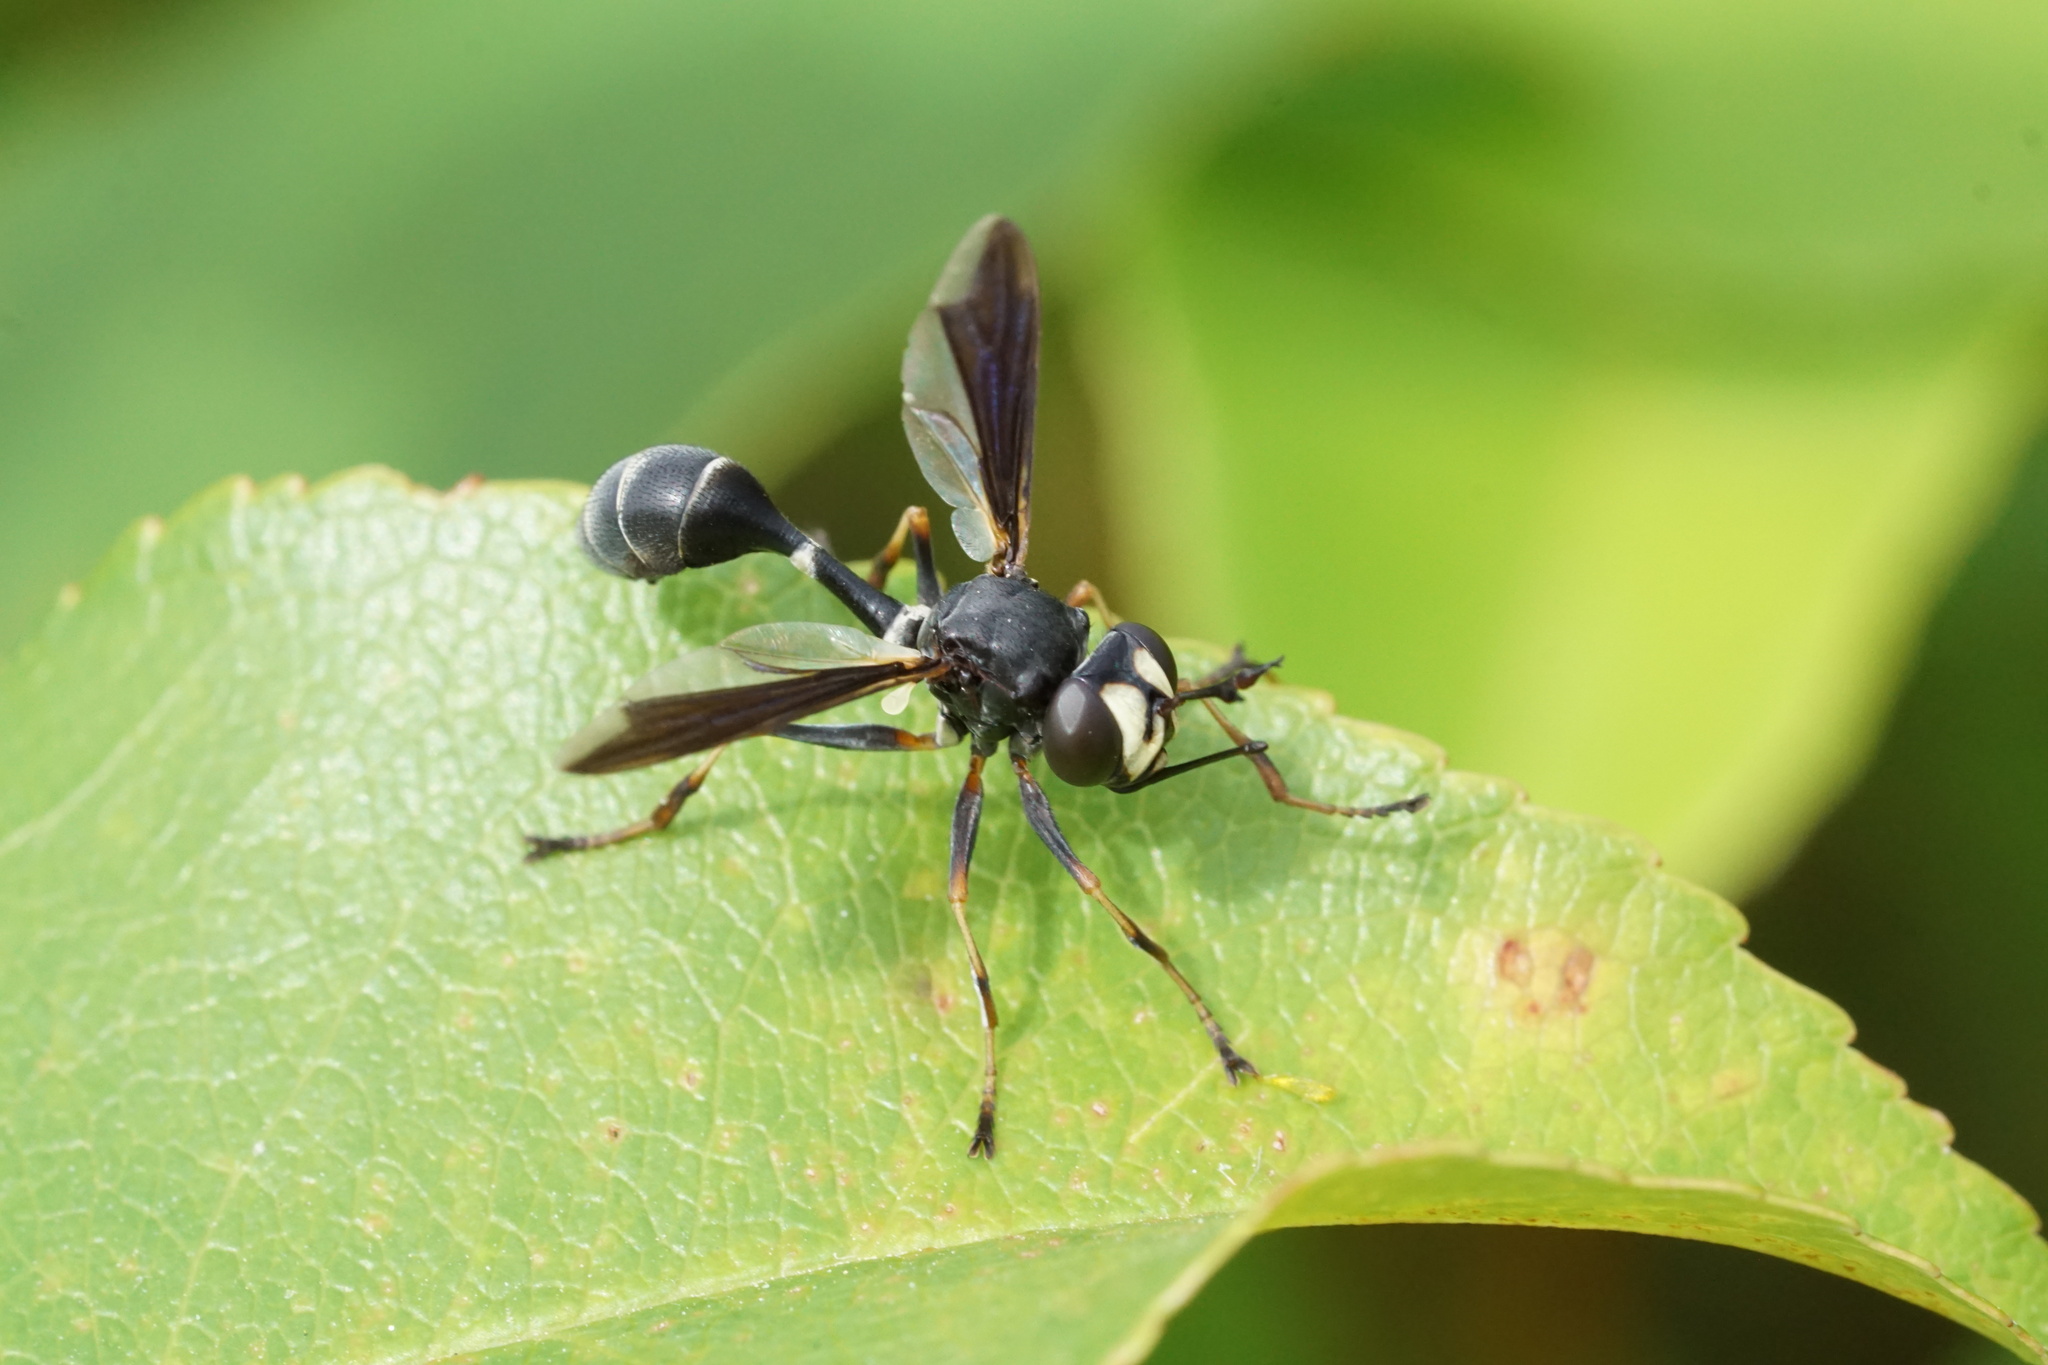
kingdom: Animalia
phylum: Arthropoda
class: Insecta
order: Diptera
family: Conopidae
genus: Physocephala
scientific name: Physocephala tibialis
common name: Common eastern physocephala
